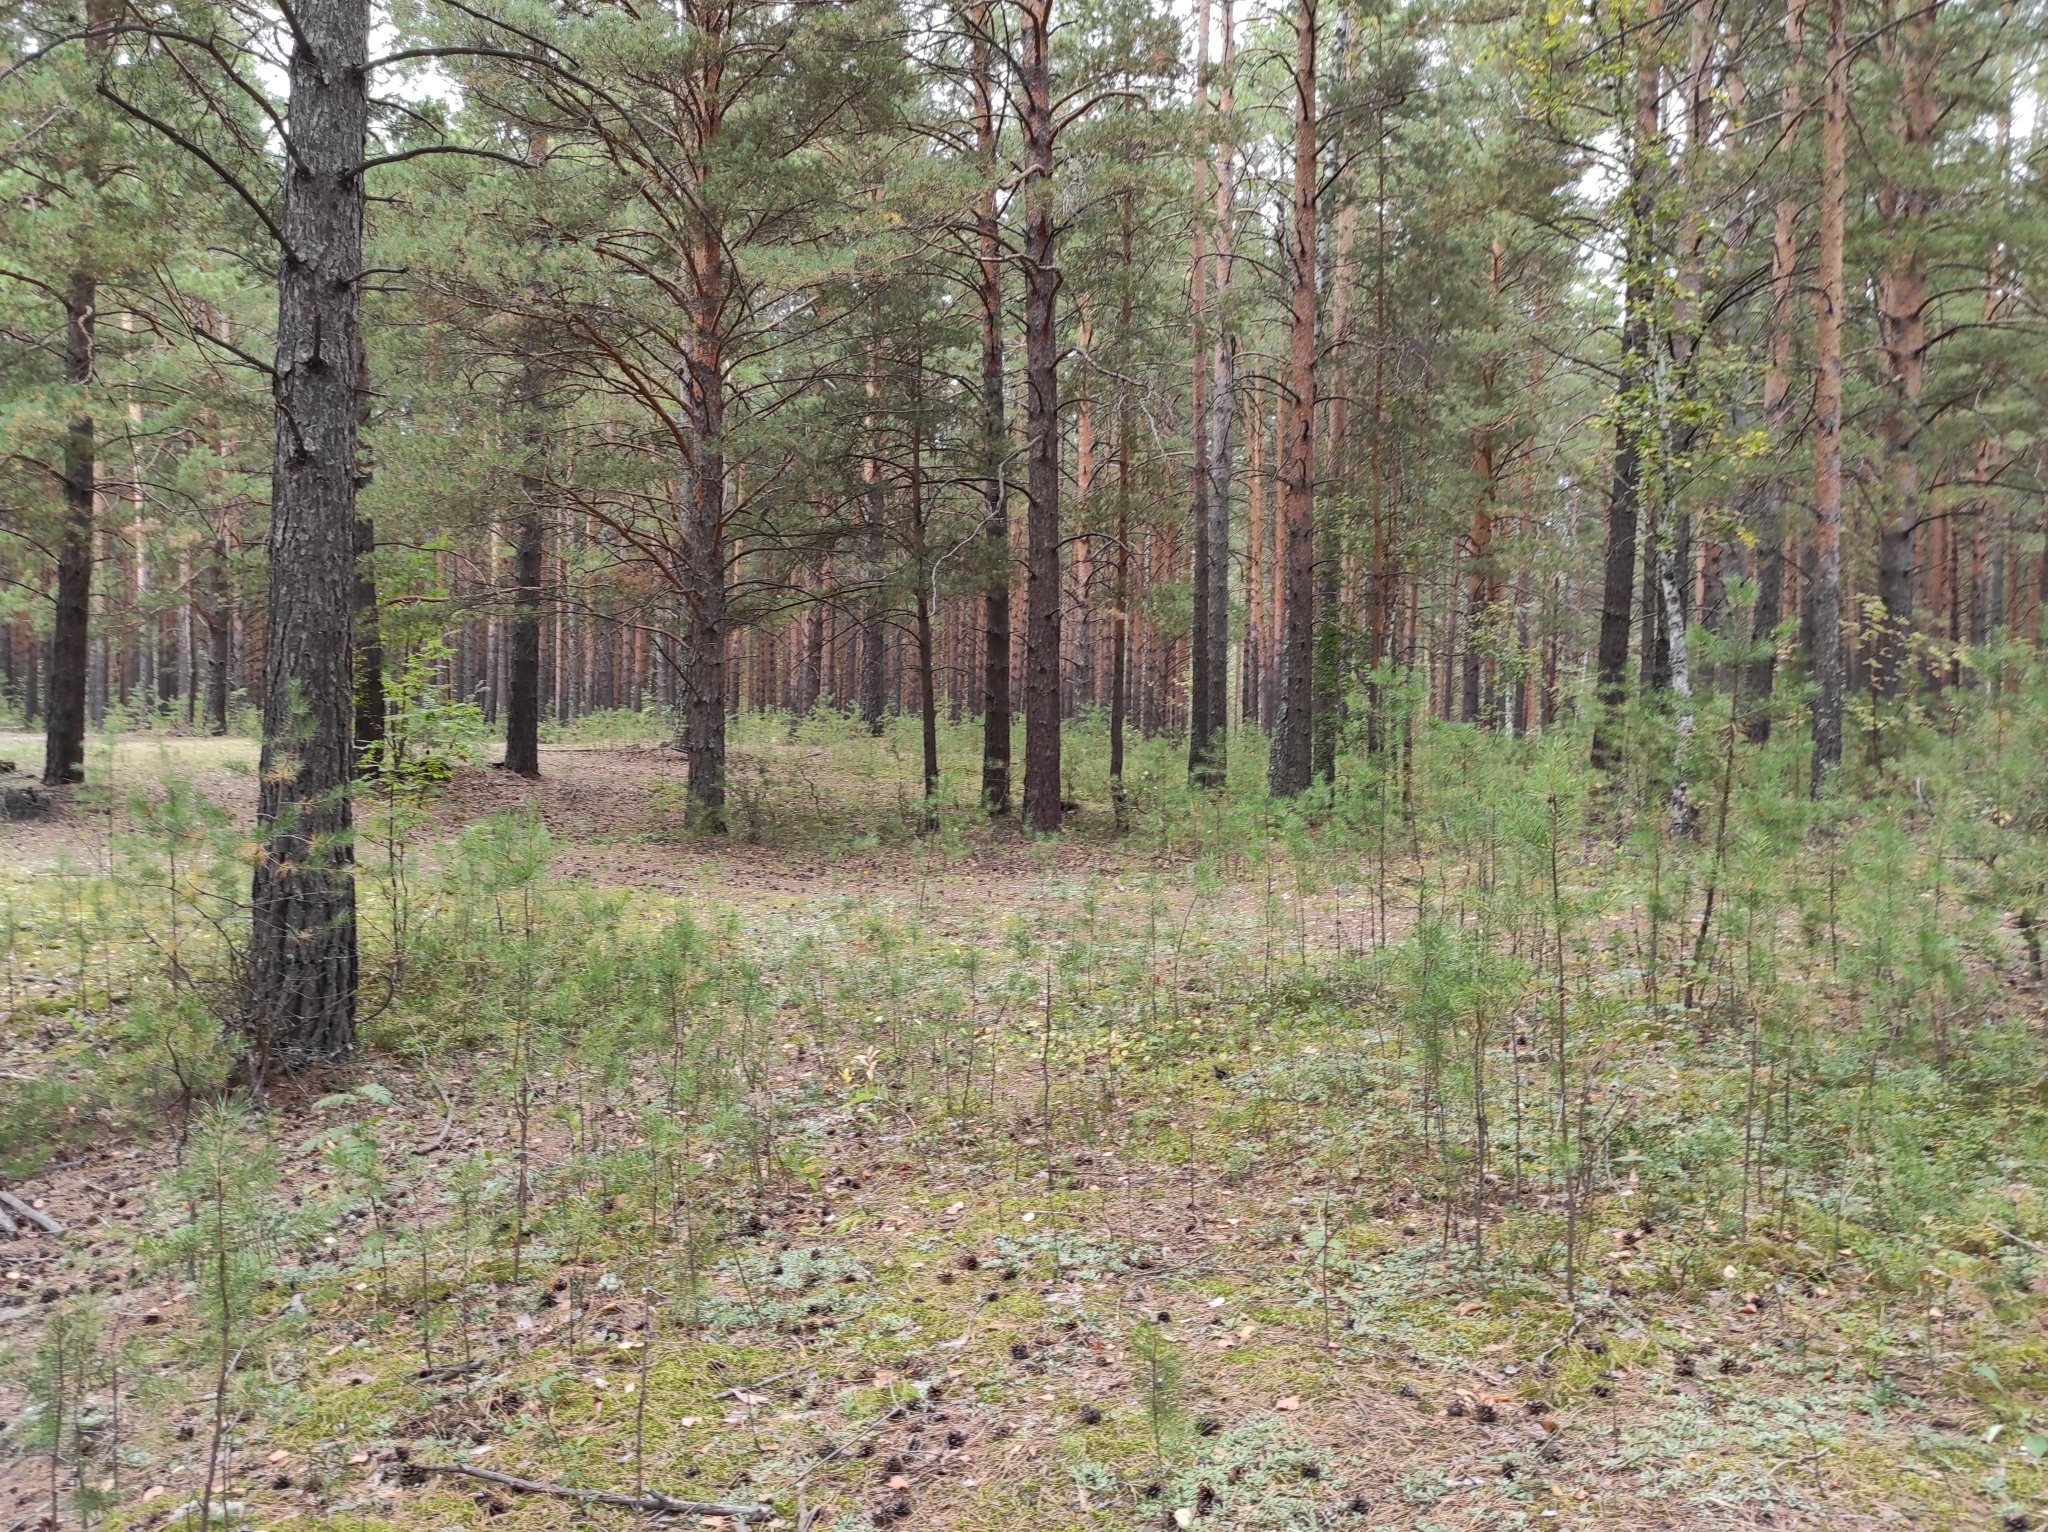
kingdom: Plantae
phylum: Tracheophyta
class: Pinopsida
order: Pinales
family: Pinaceae
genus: Pinus
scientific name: Pinus sylvestris
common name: Scots pine
